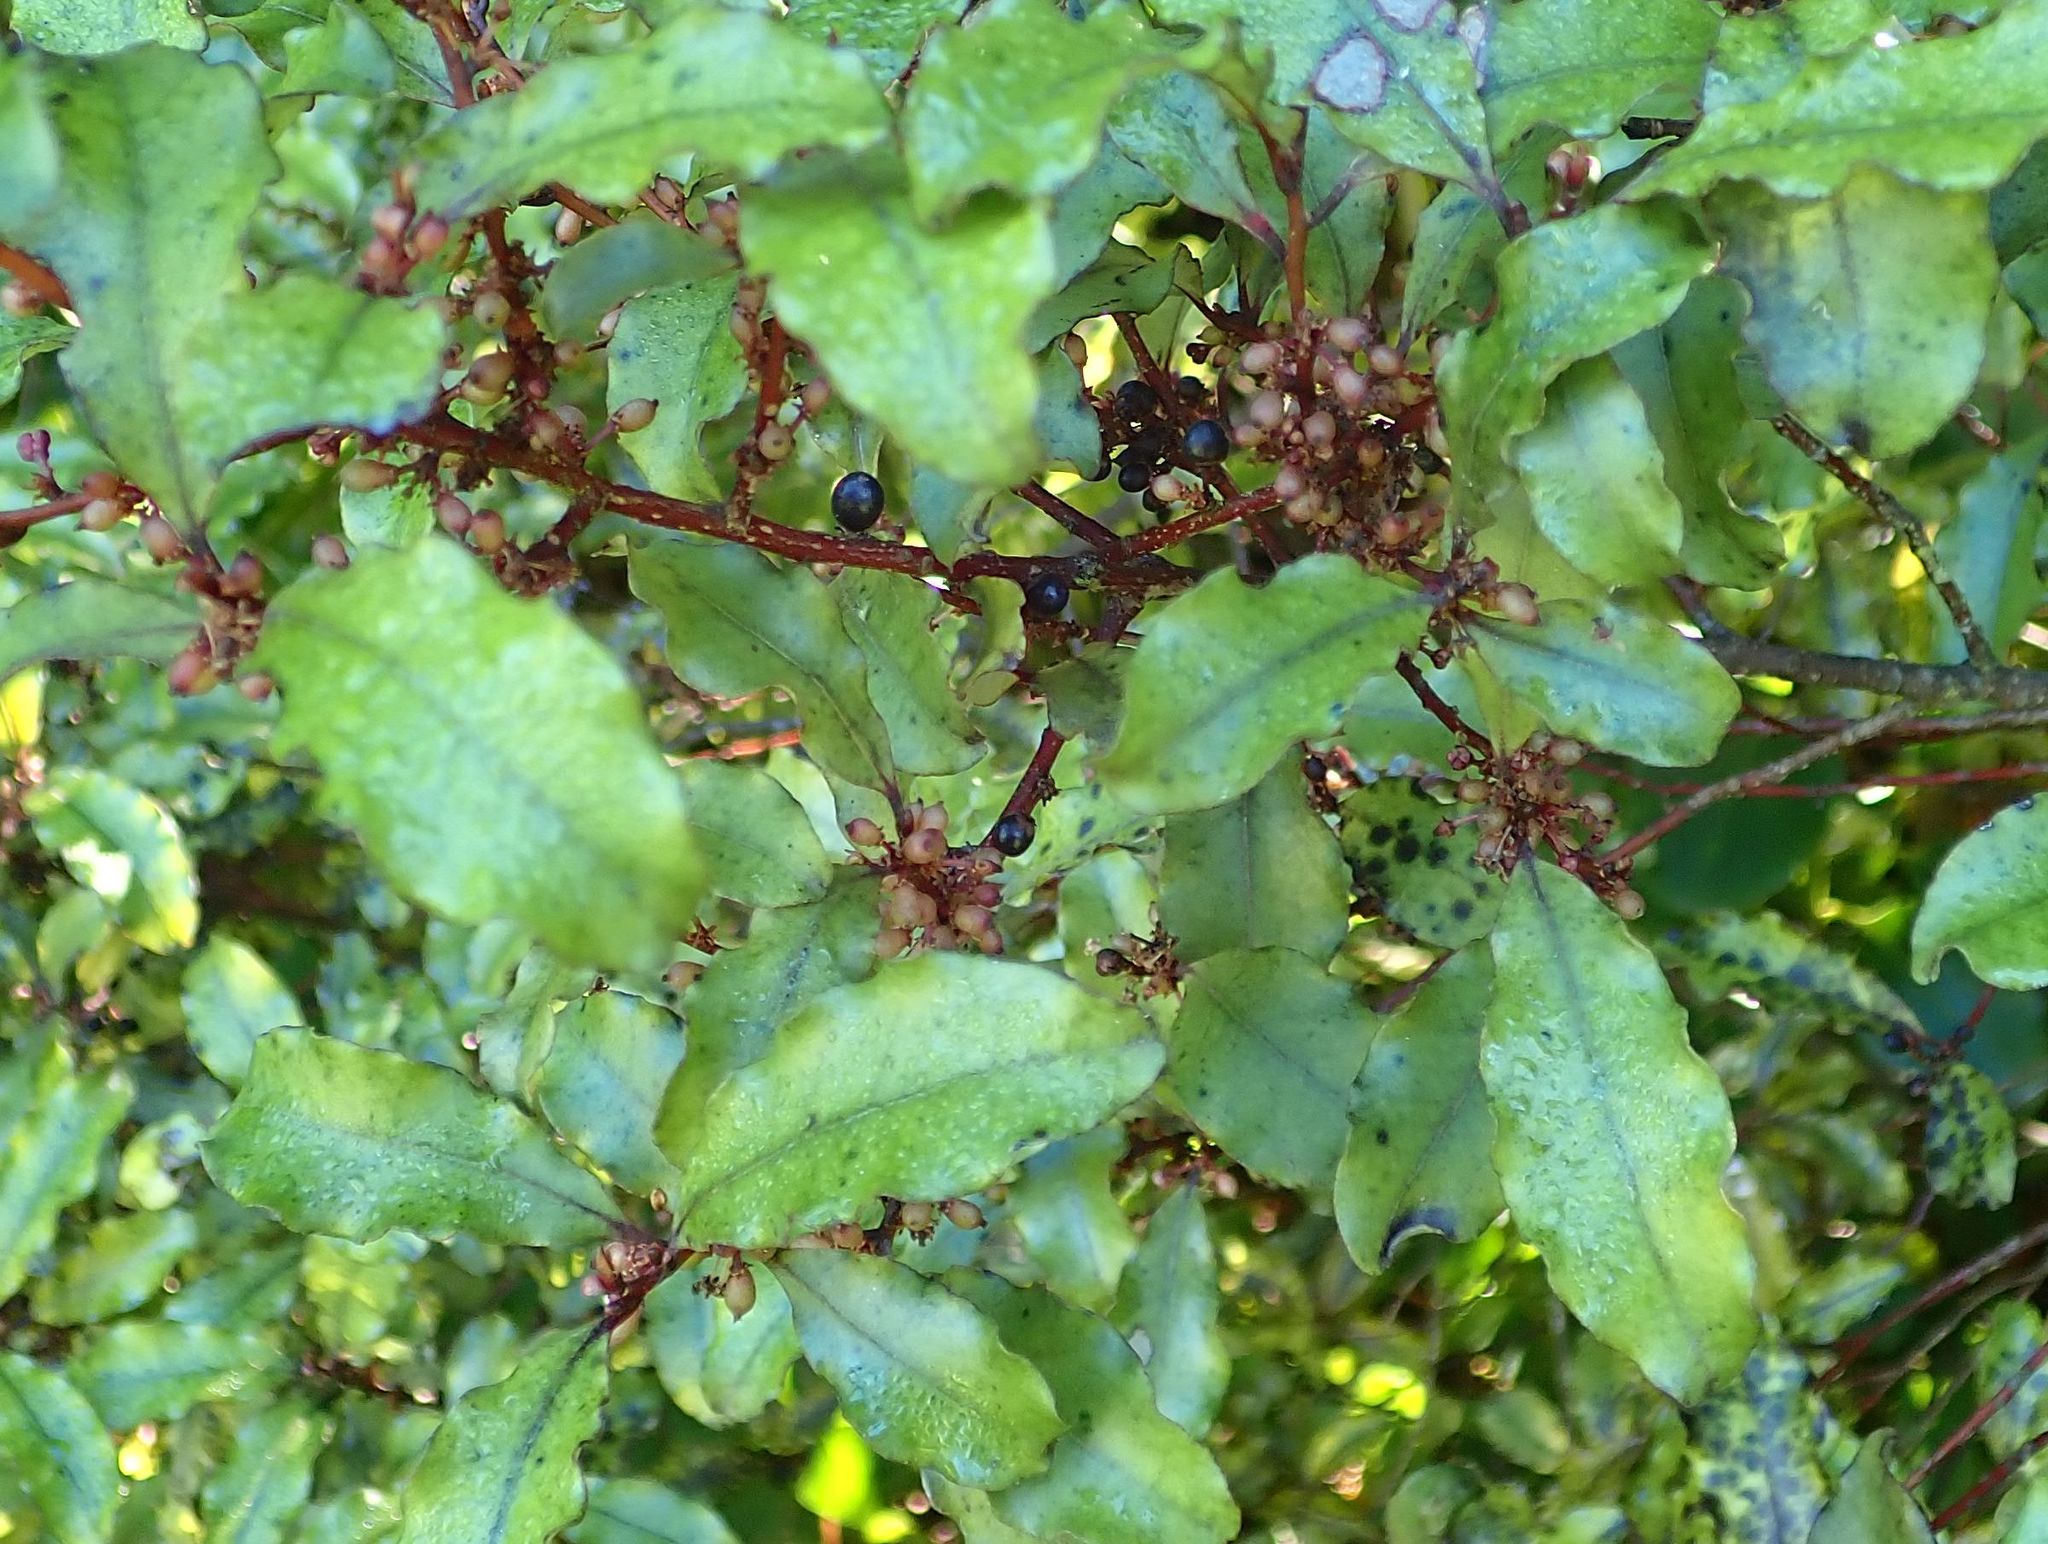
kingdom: Plantae
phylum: Tracheophyta
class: Magnoliopsida
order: Ericales
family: Primulaceae
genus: Myrsine
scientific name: Myrsine australis
